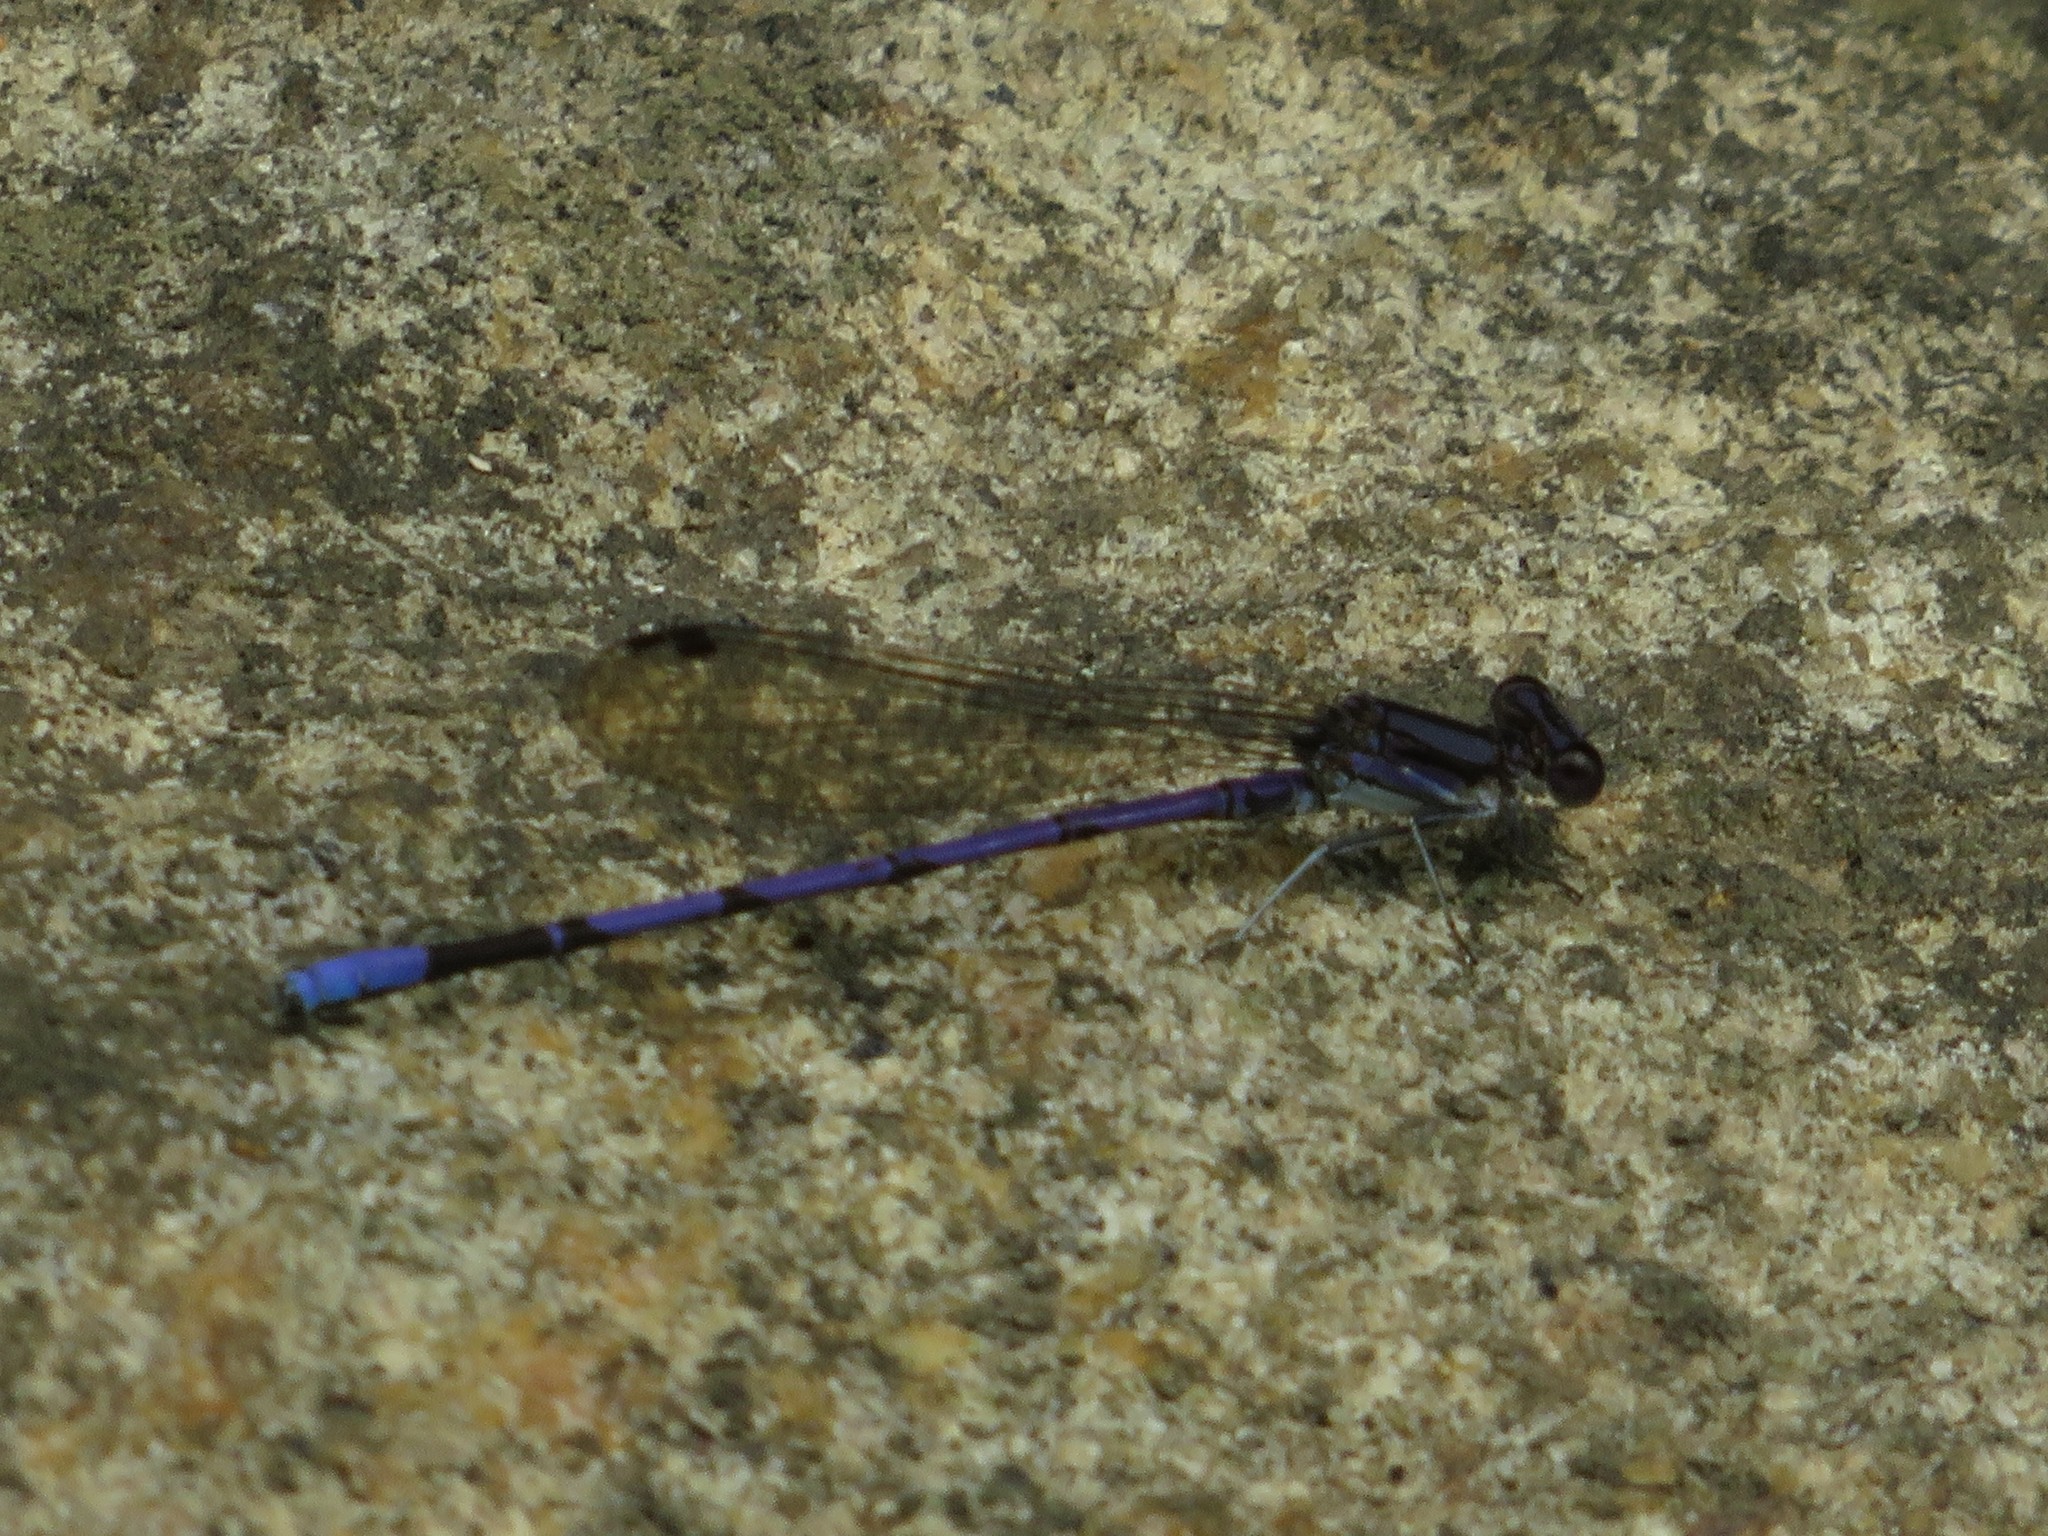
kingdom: Animalia
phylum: Arthropoda
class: Insecta
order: Odonata
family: Coenagrionidae
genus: Argia
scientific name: Argia fumipennis
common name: Variable dancer
